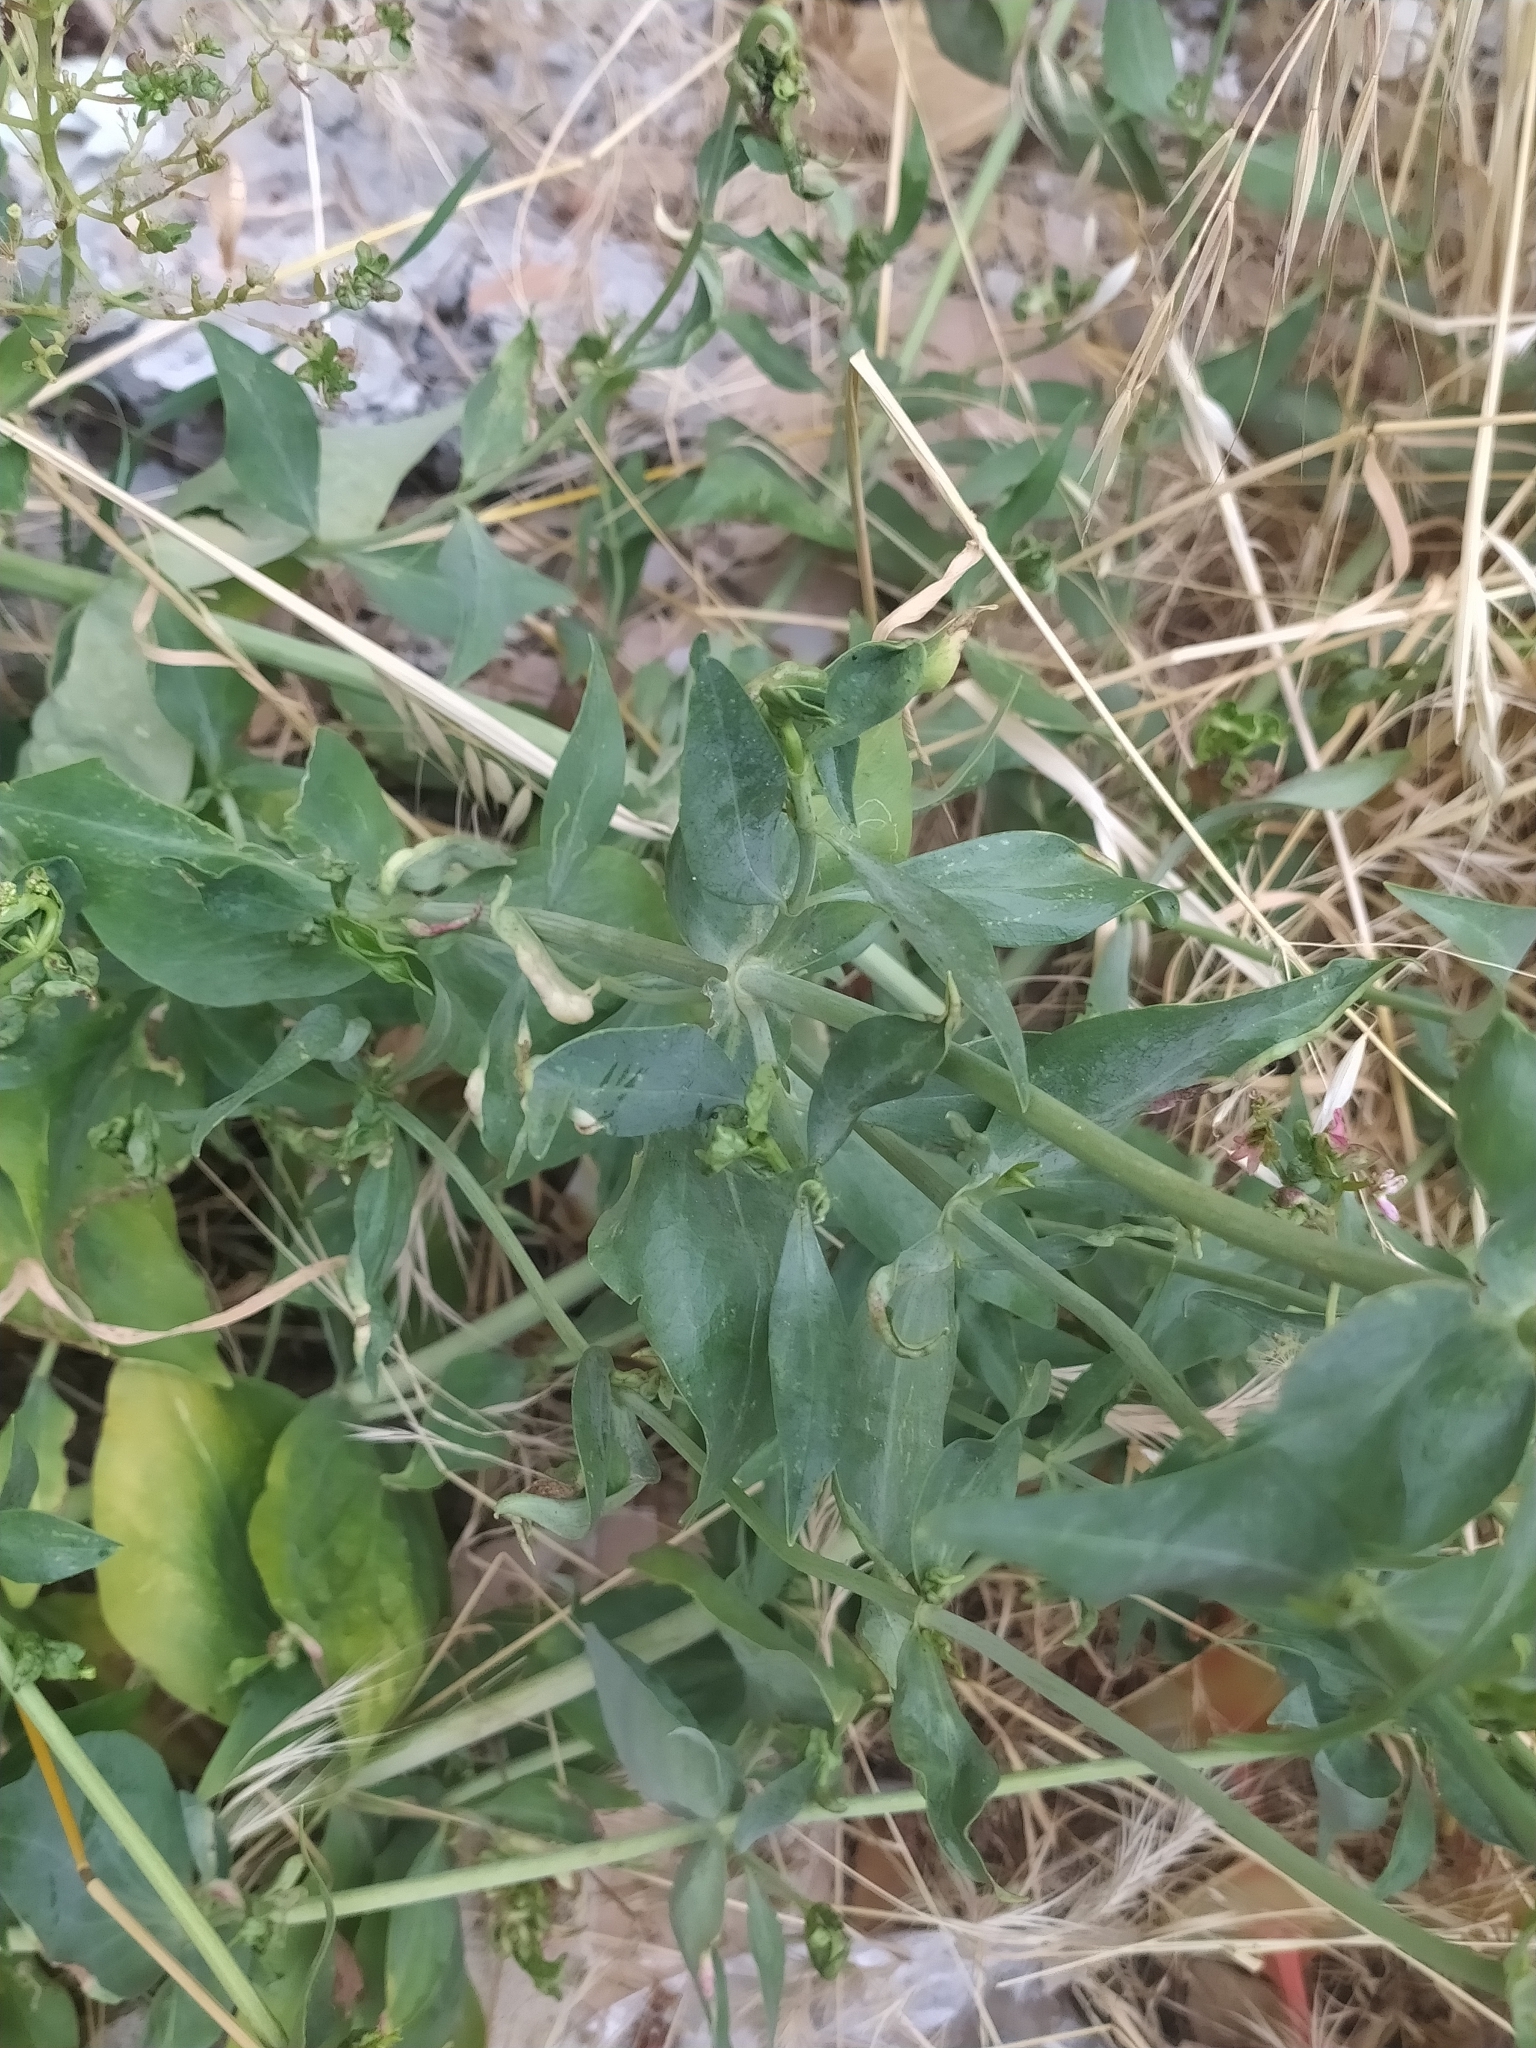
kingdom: Plantae
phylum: Tracheophyta
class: Magnoliopsida
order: Dipsacales
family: Caprifoliaceae
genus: Centranthus
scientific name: Centranthus ruber
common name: Red valerian
